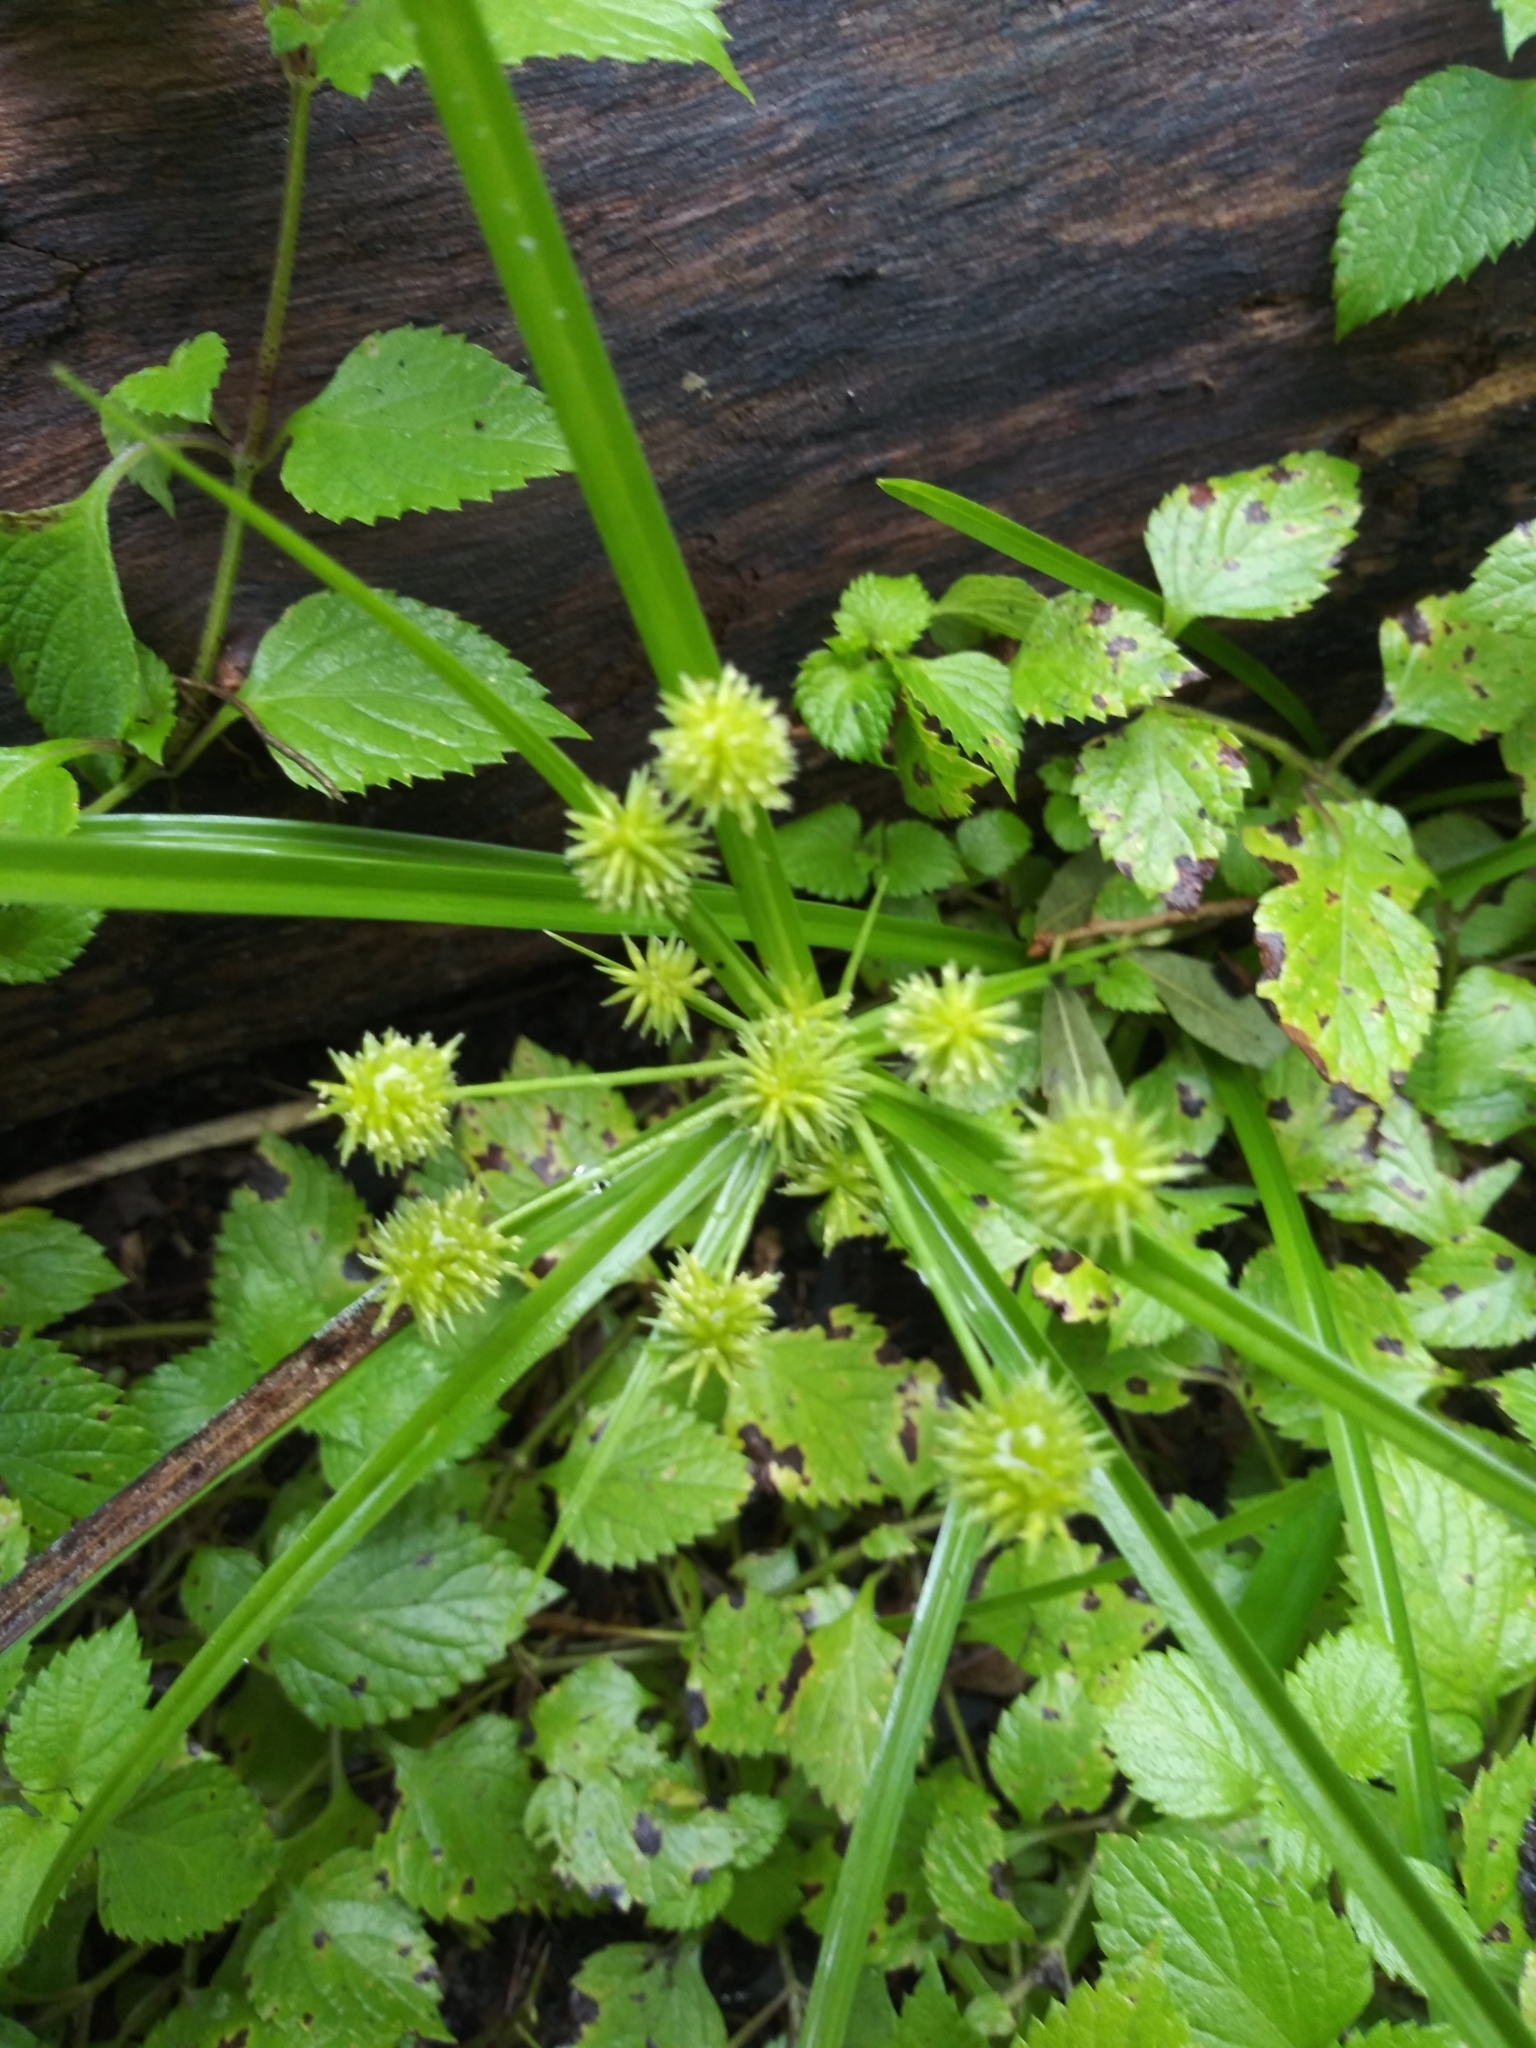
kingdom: Plantae
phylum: Tracheophyta
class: Liliopsida
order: Poales
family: Cyperaceae
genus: Cyperus
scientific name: Cyperus croceus
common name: Baldwin's flatsedge
